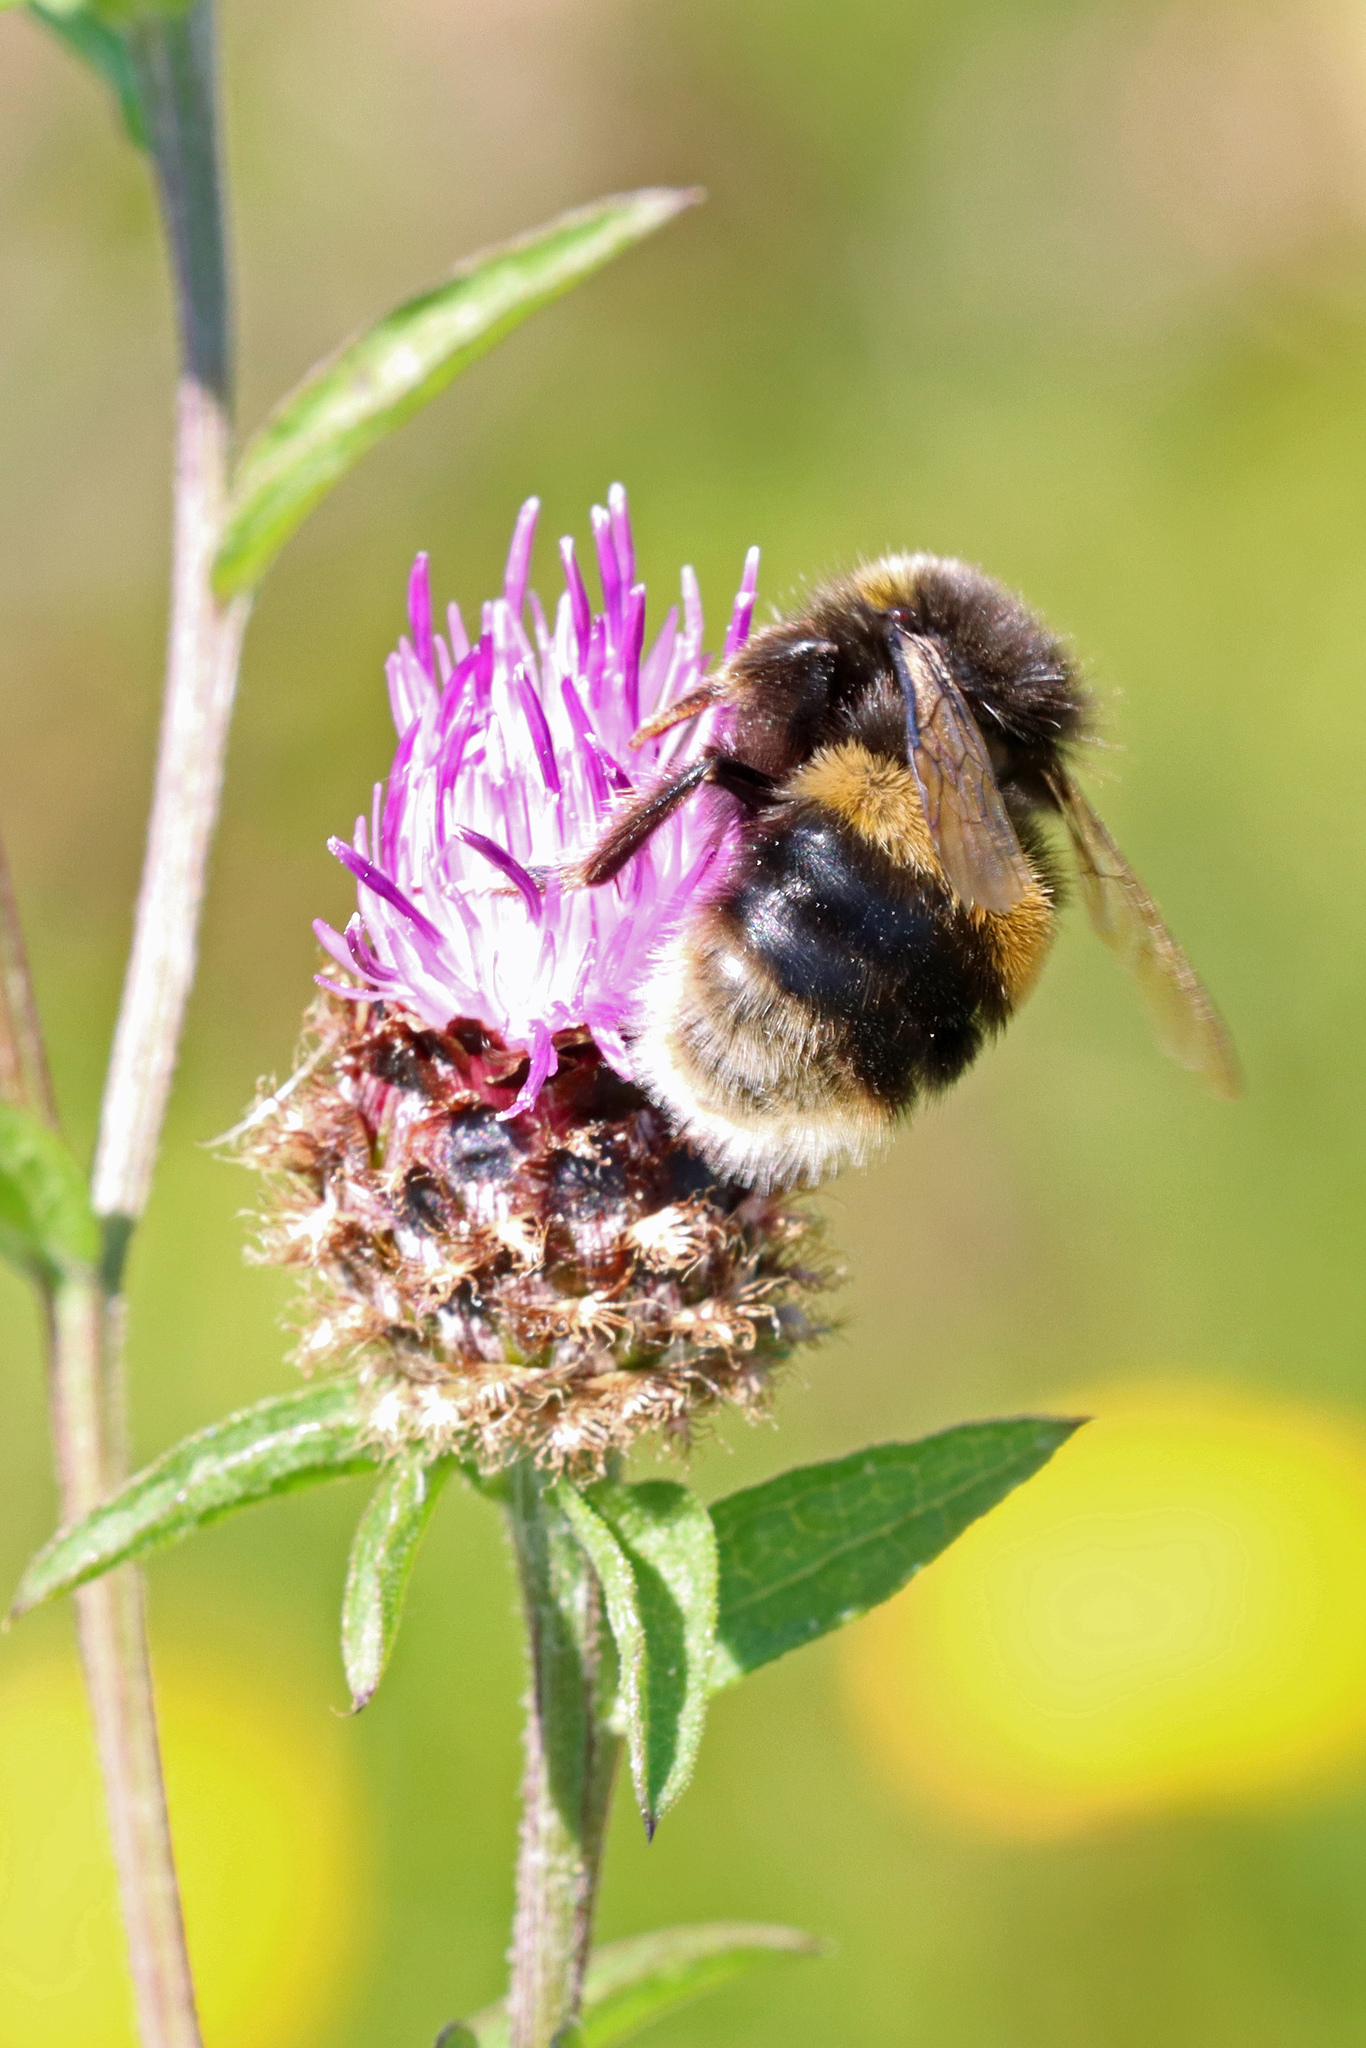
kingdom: Animalia
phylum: Arthropoda
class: Insecta
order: Hymenoptera
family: Apidae
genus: Bombus
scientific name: Bombus terrestris
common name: Buff-tailed bumblebee
